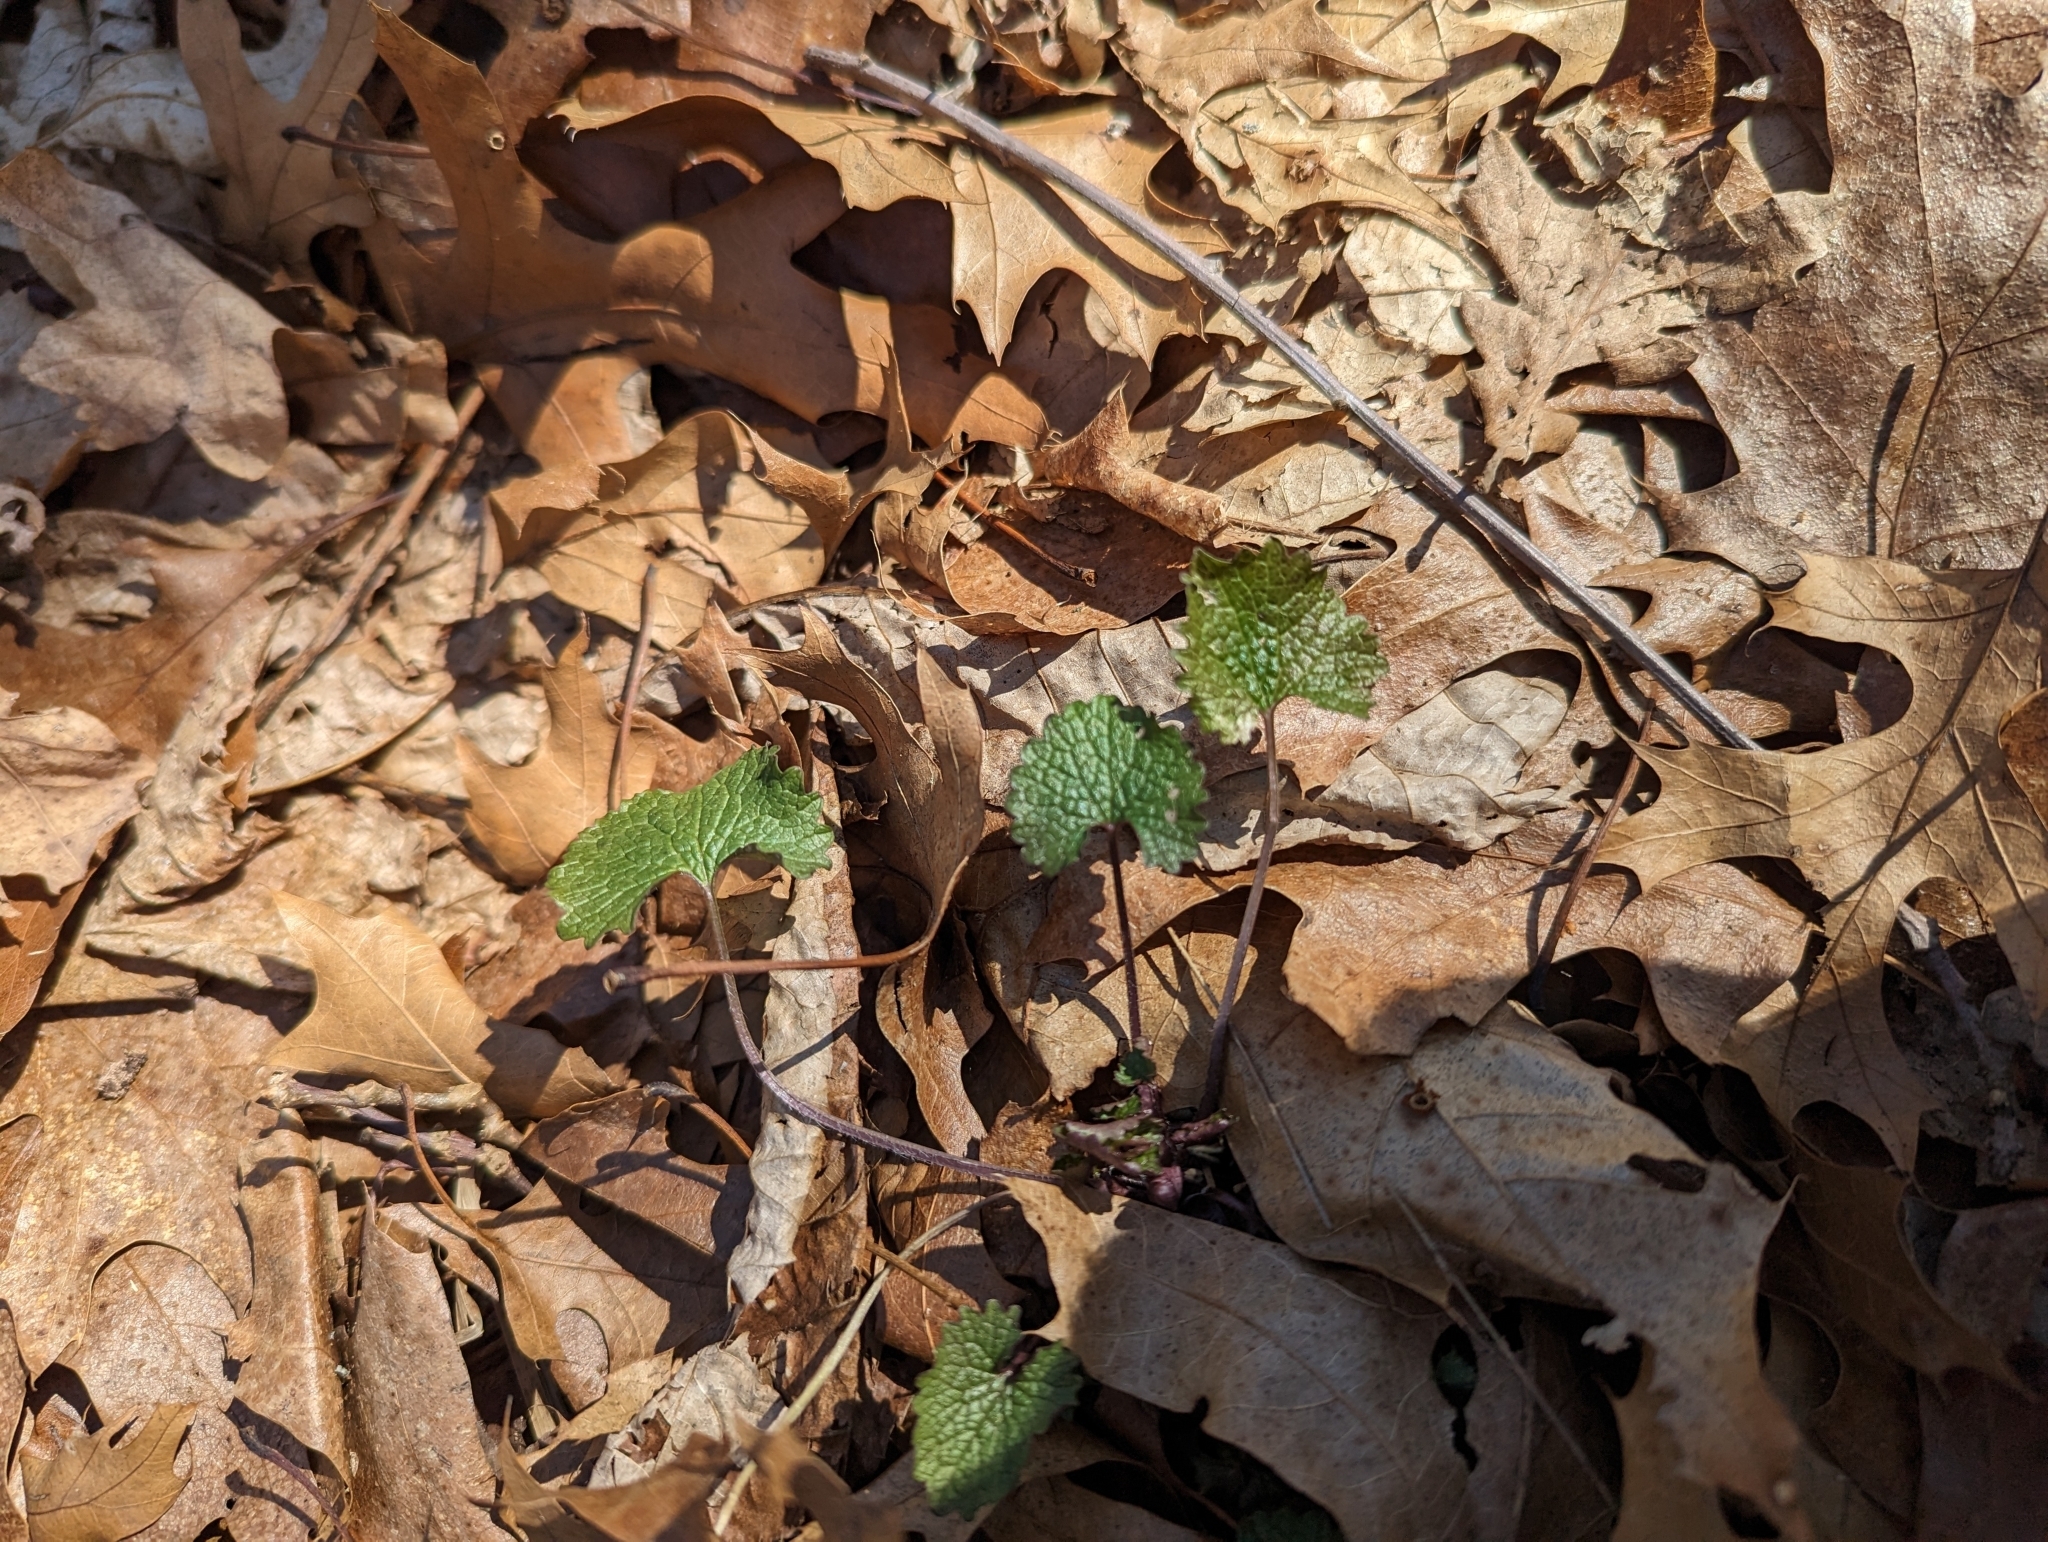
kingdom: Plantae
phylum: Tracheophyta
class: Magnoliopsida
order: Brassicales
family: Brassicaceae
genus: Alliaria
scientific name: Alliaria petiolata
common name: Garlic mustard
